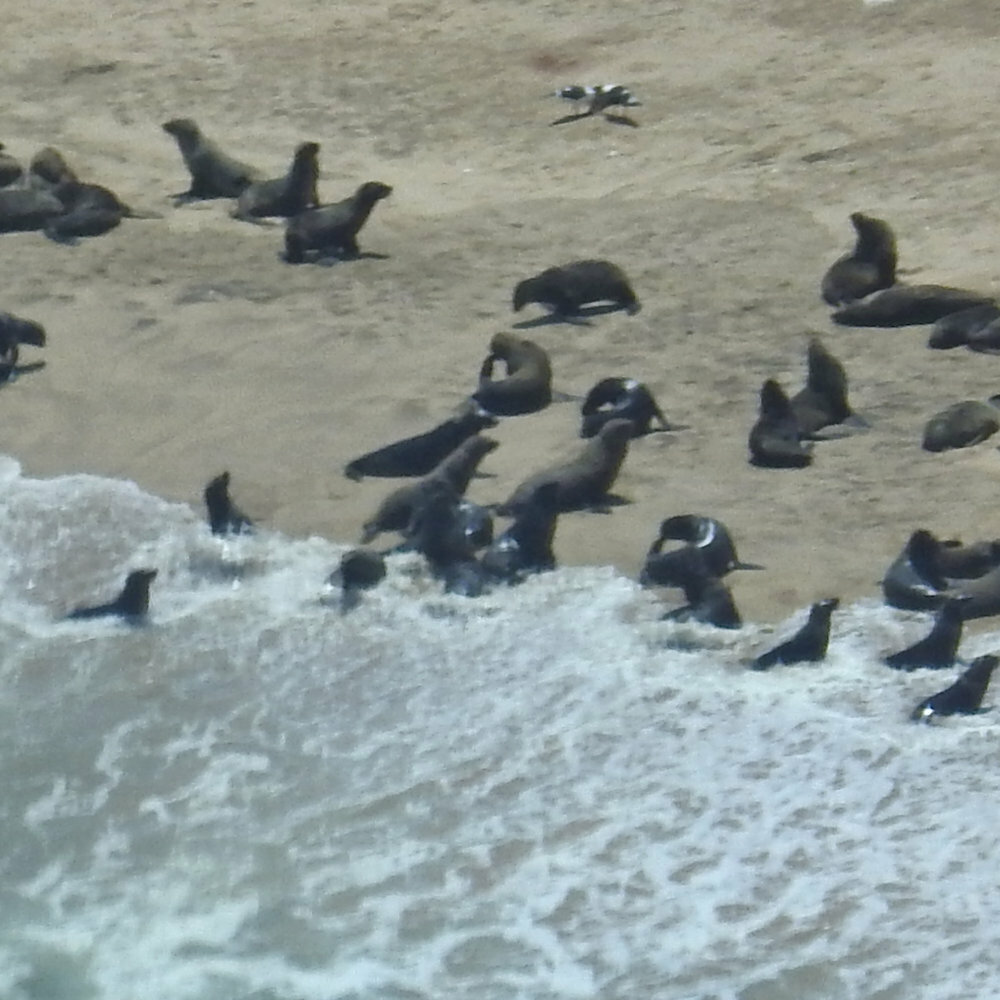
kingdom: Animalia
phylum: Chordata
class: Mammalia
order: Carnivora
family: Otariidae
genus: Arctocephalus
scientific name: Arctocephalus pusillus
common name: Brown fur seal
